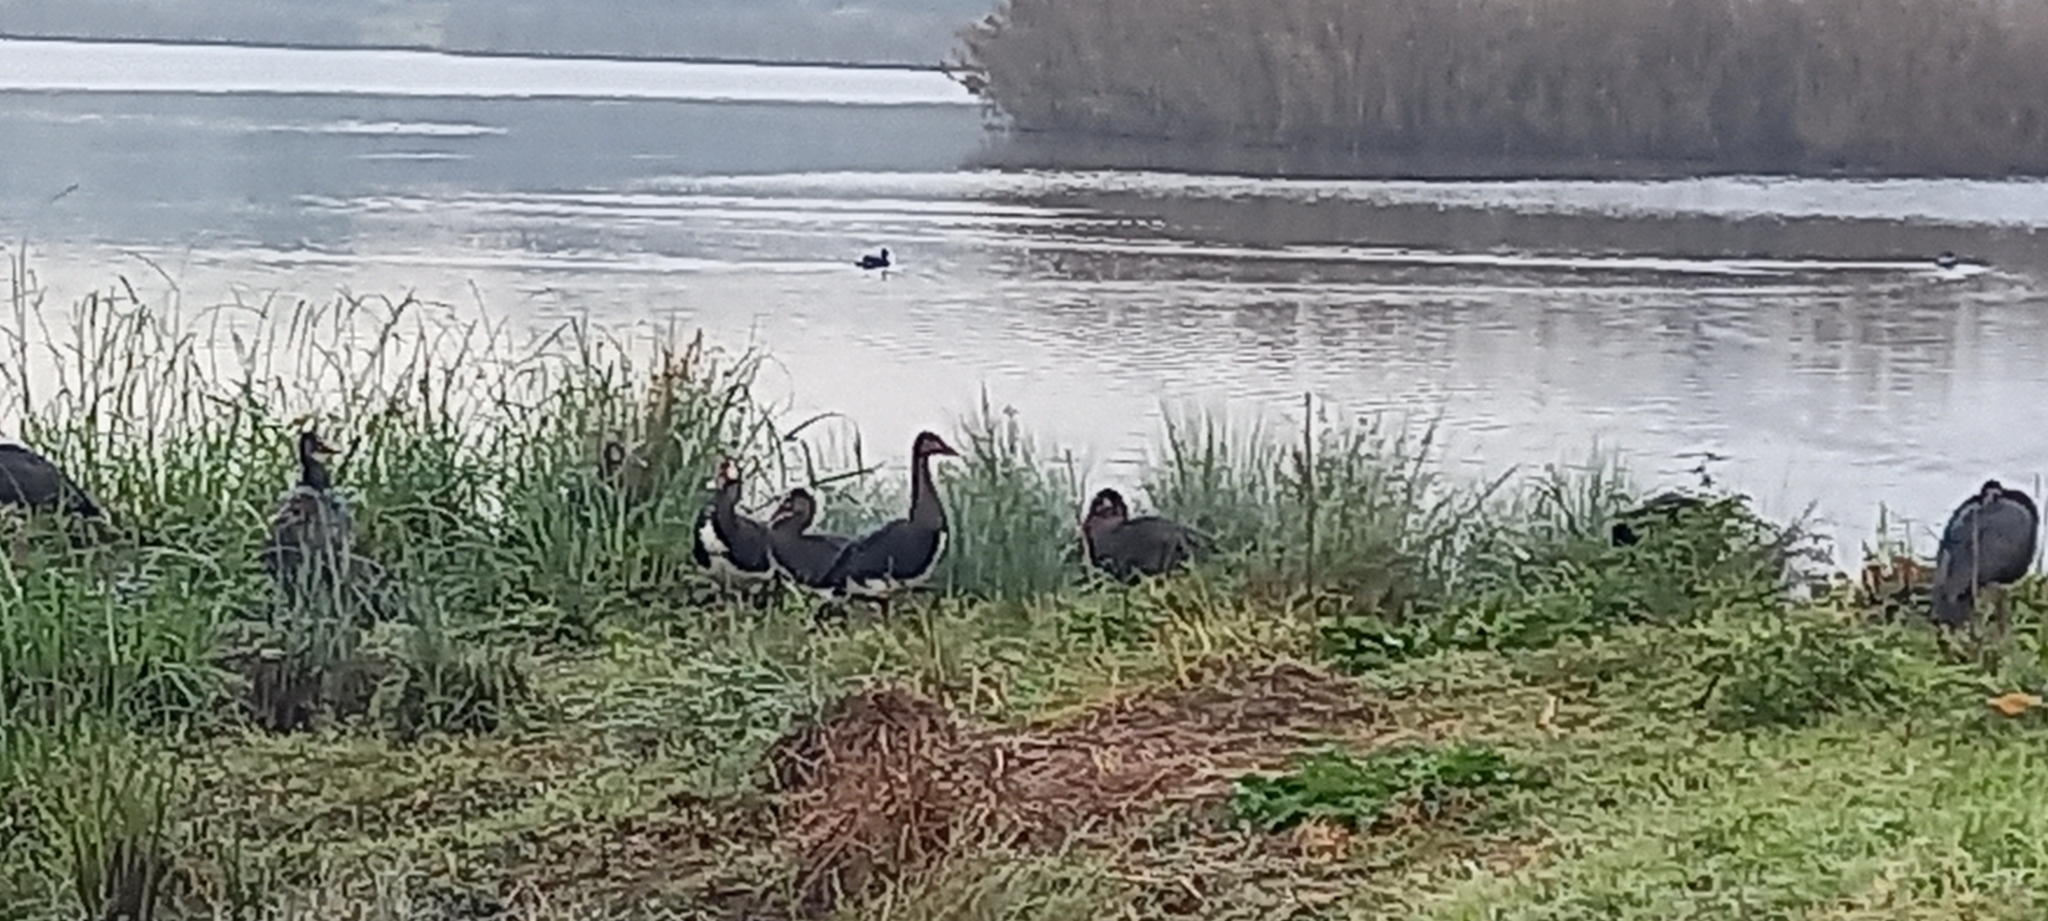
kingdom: Animalia
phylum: Chordata
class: Aves
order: Anseriformes
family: Anatidae
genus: Plectropterus
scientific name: Plectropterus gambensis
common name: Spur-winged goose
